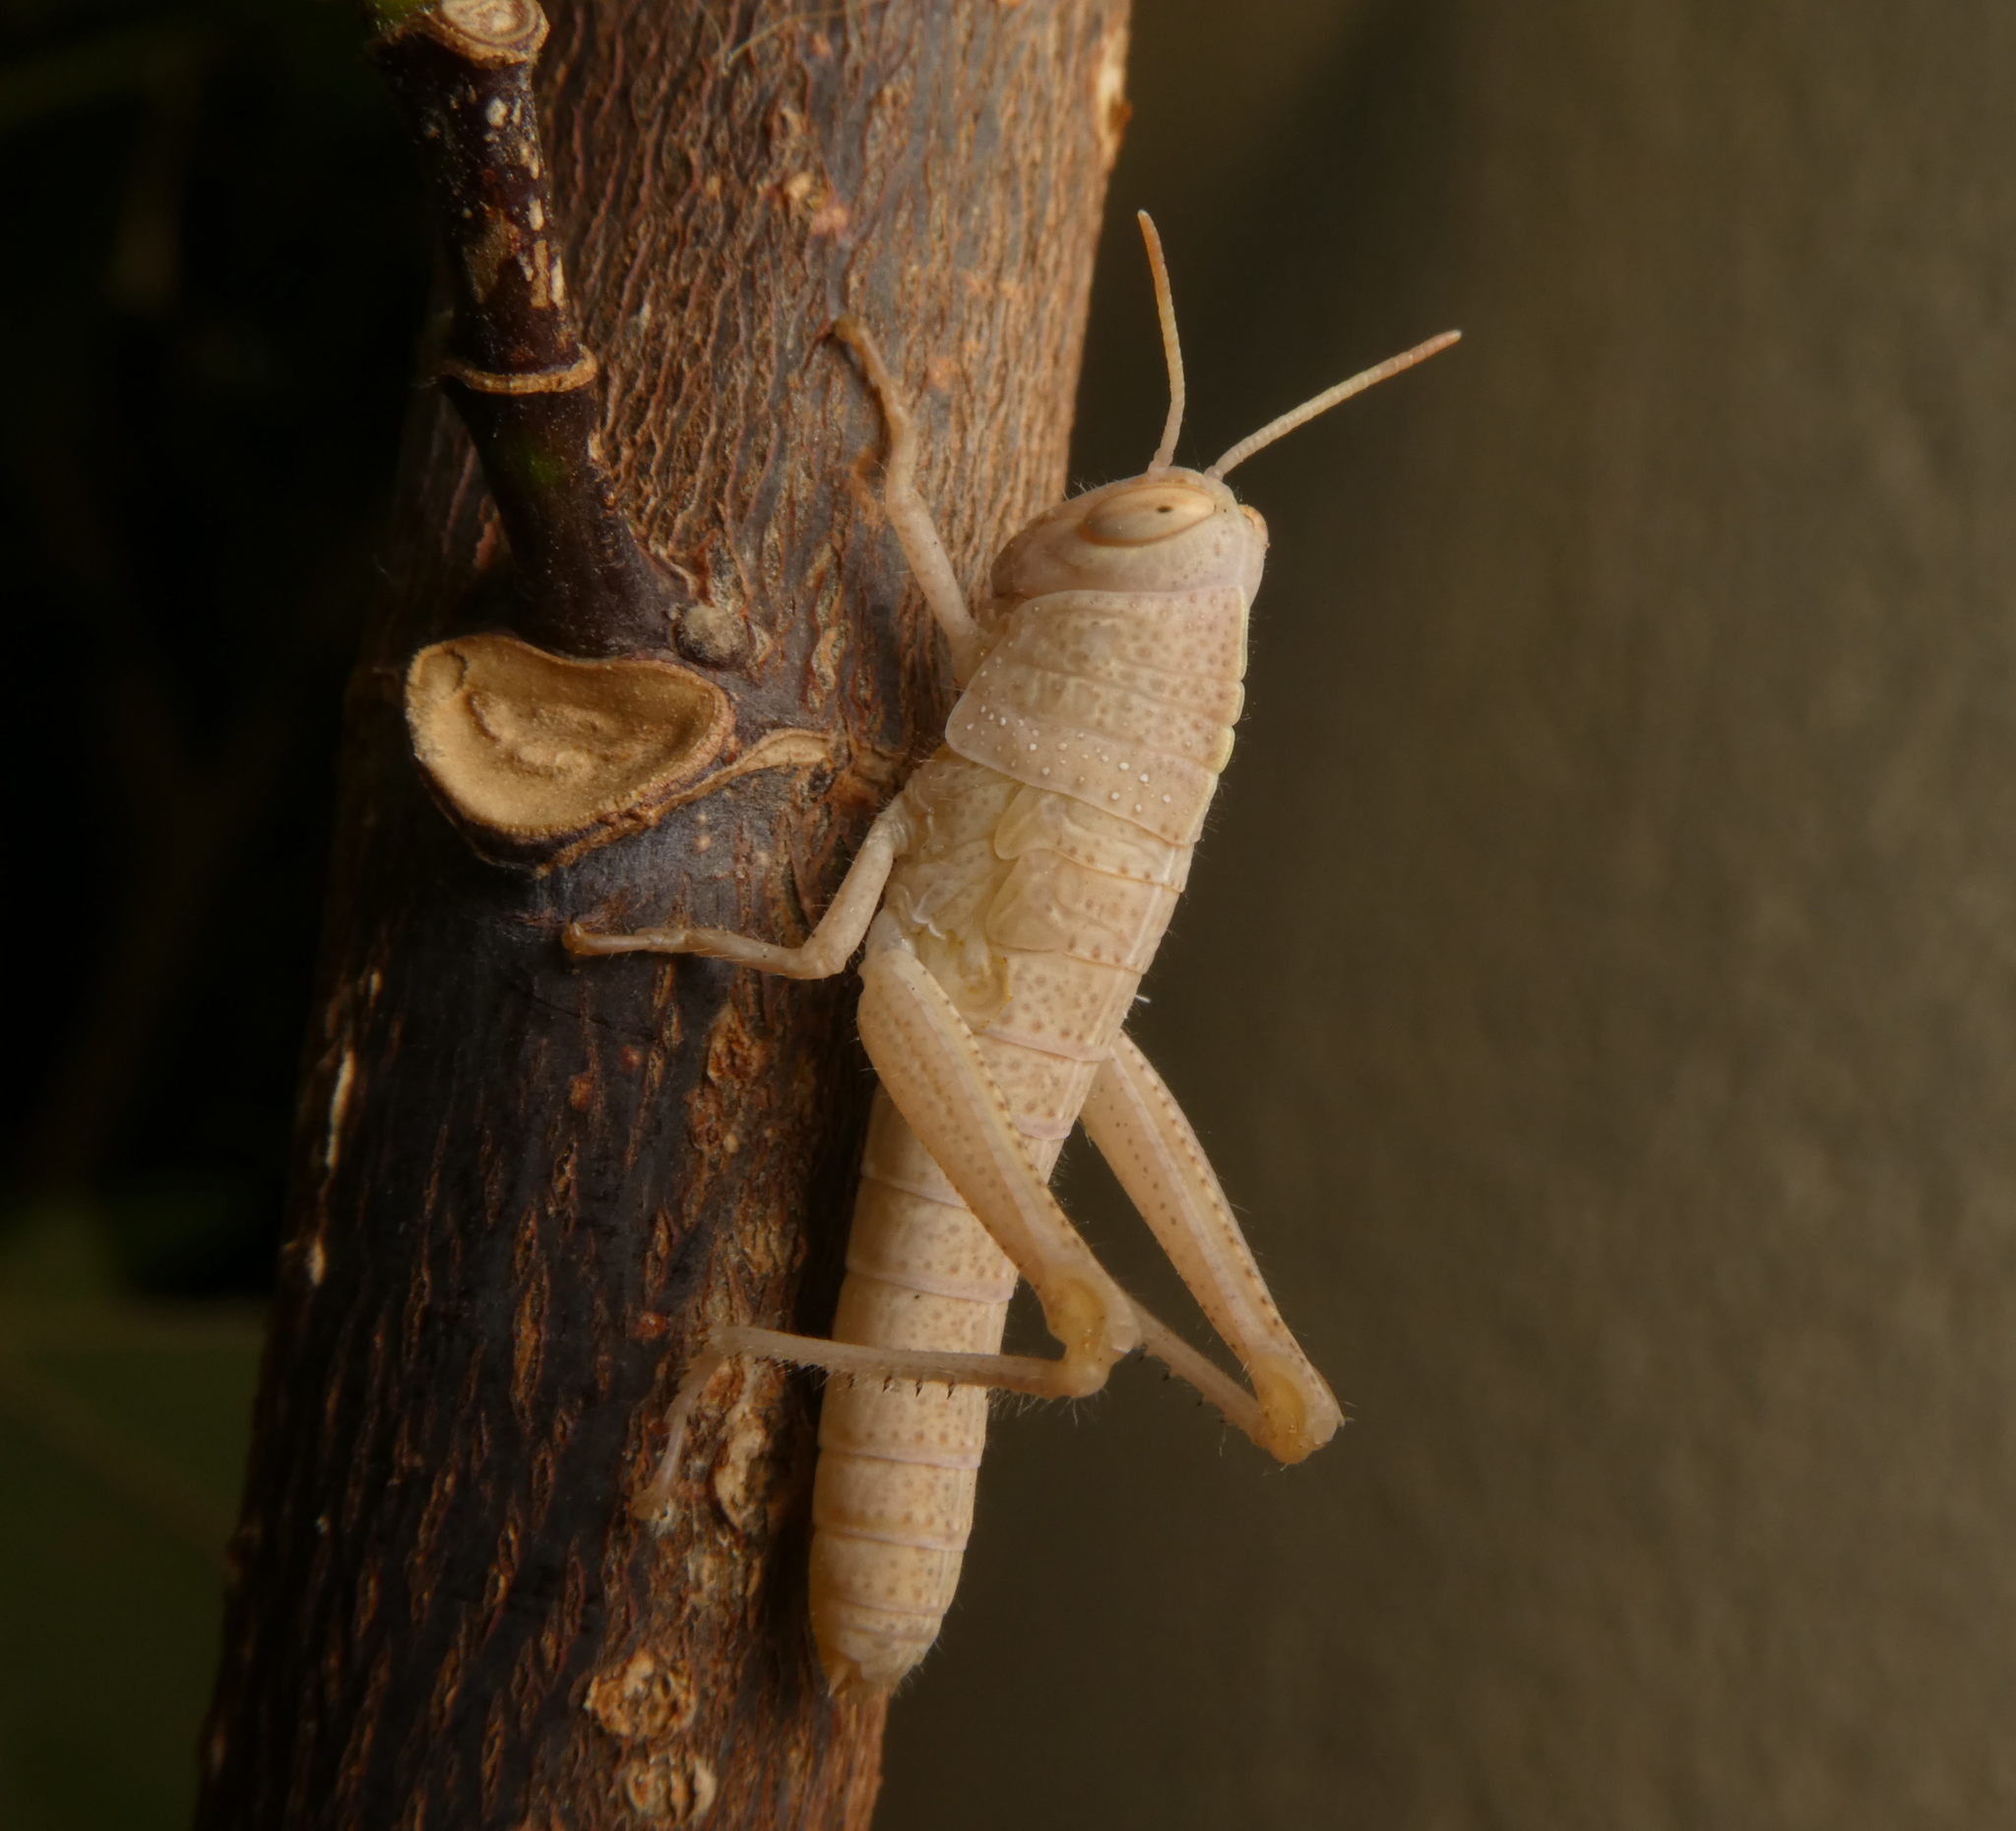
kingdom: Animalia
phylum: Arthropoda
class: Insecta
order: Orthoptera
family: Acrididae
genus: Anacridium
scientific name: Anacridium aegyptium
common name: Egyptian grasshopper
